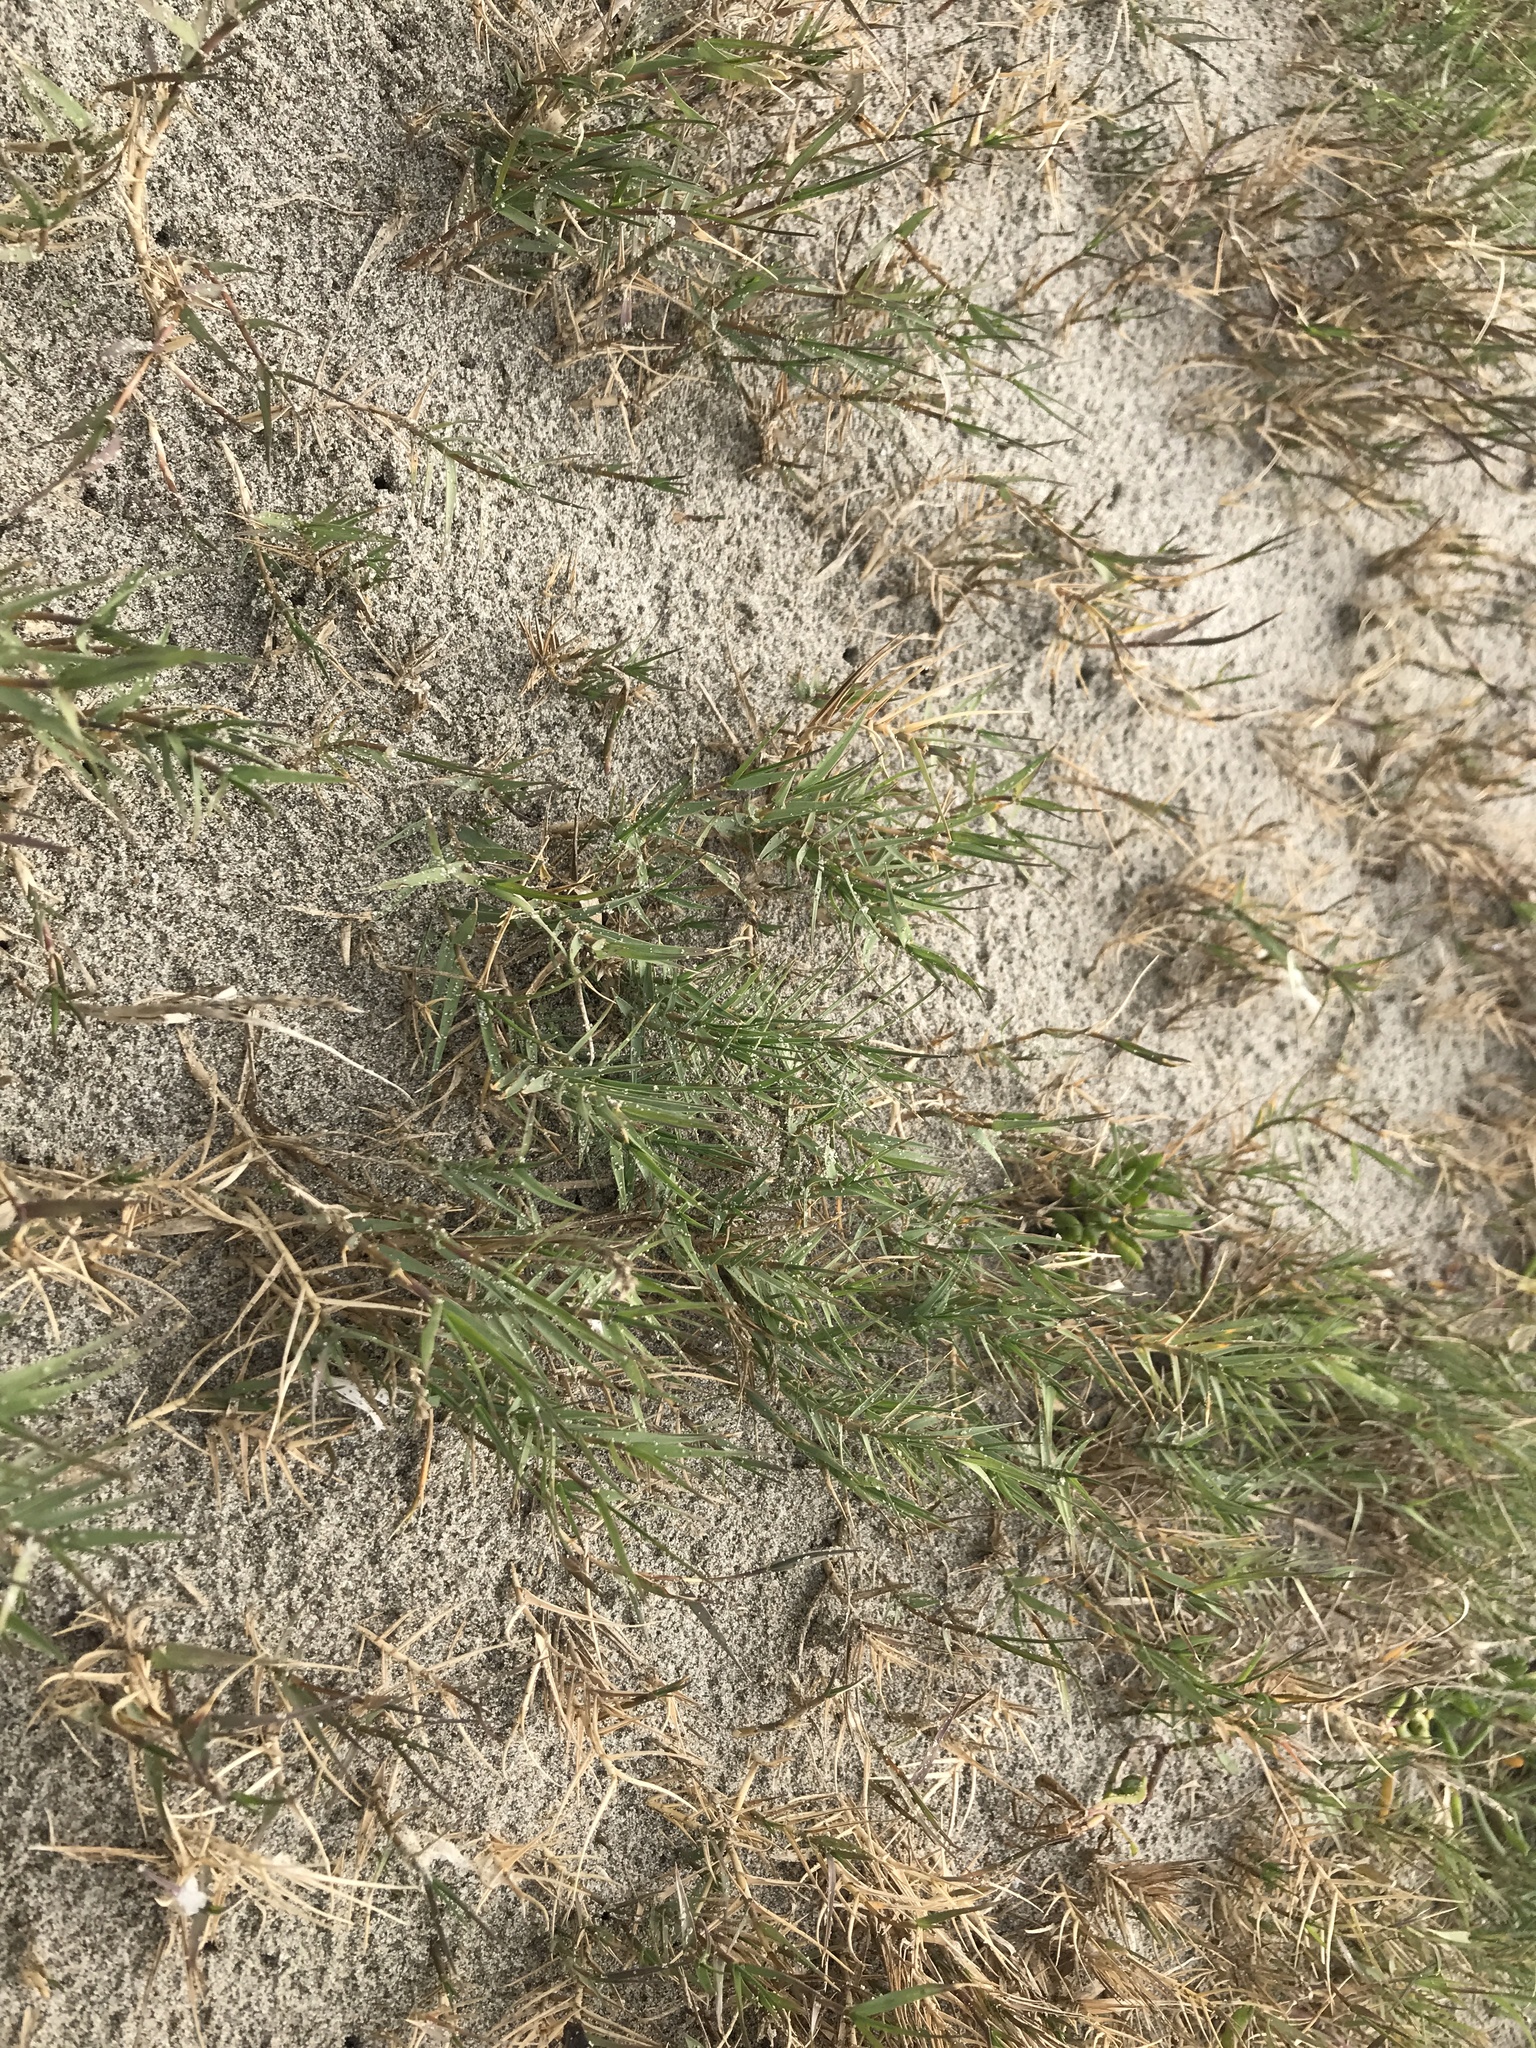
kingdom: Plantae
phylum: Tracheophyta
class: Liliopsida
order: Poales
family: Poaceae
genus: Distichlis
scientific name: Distichlis spicata
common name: Saltgrass
